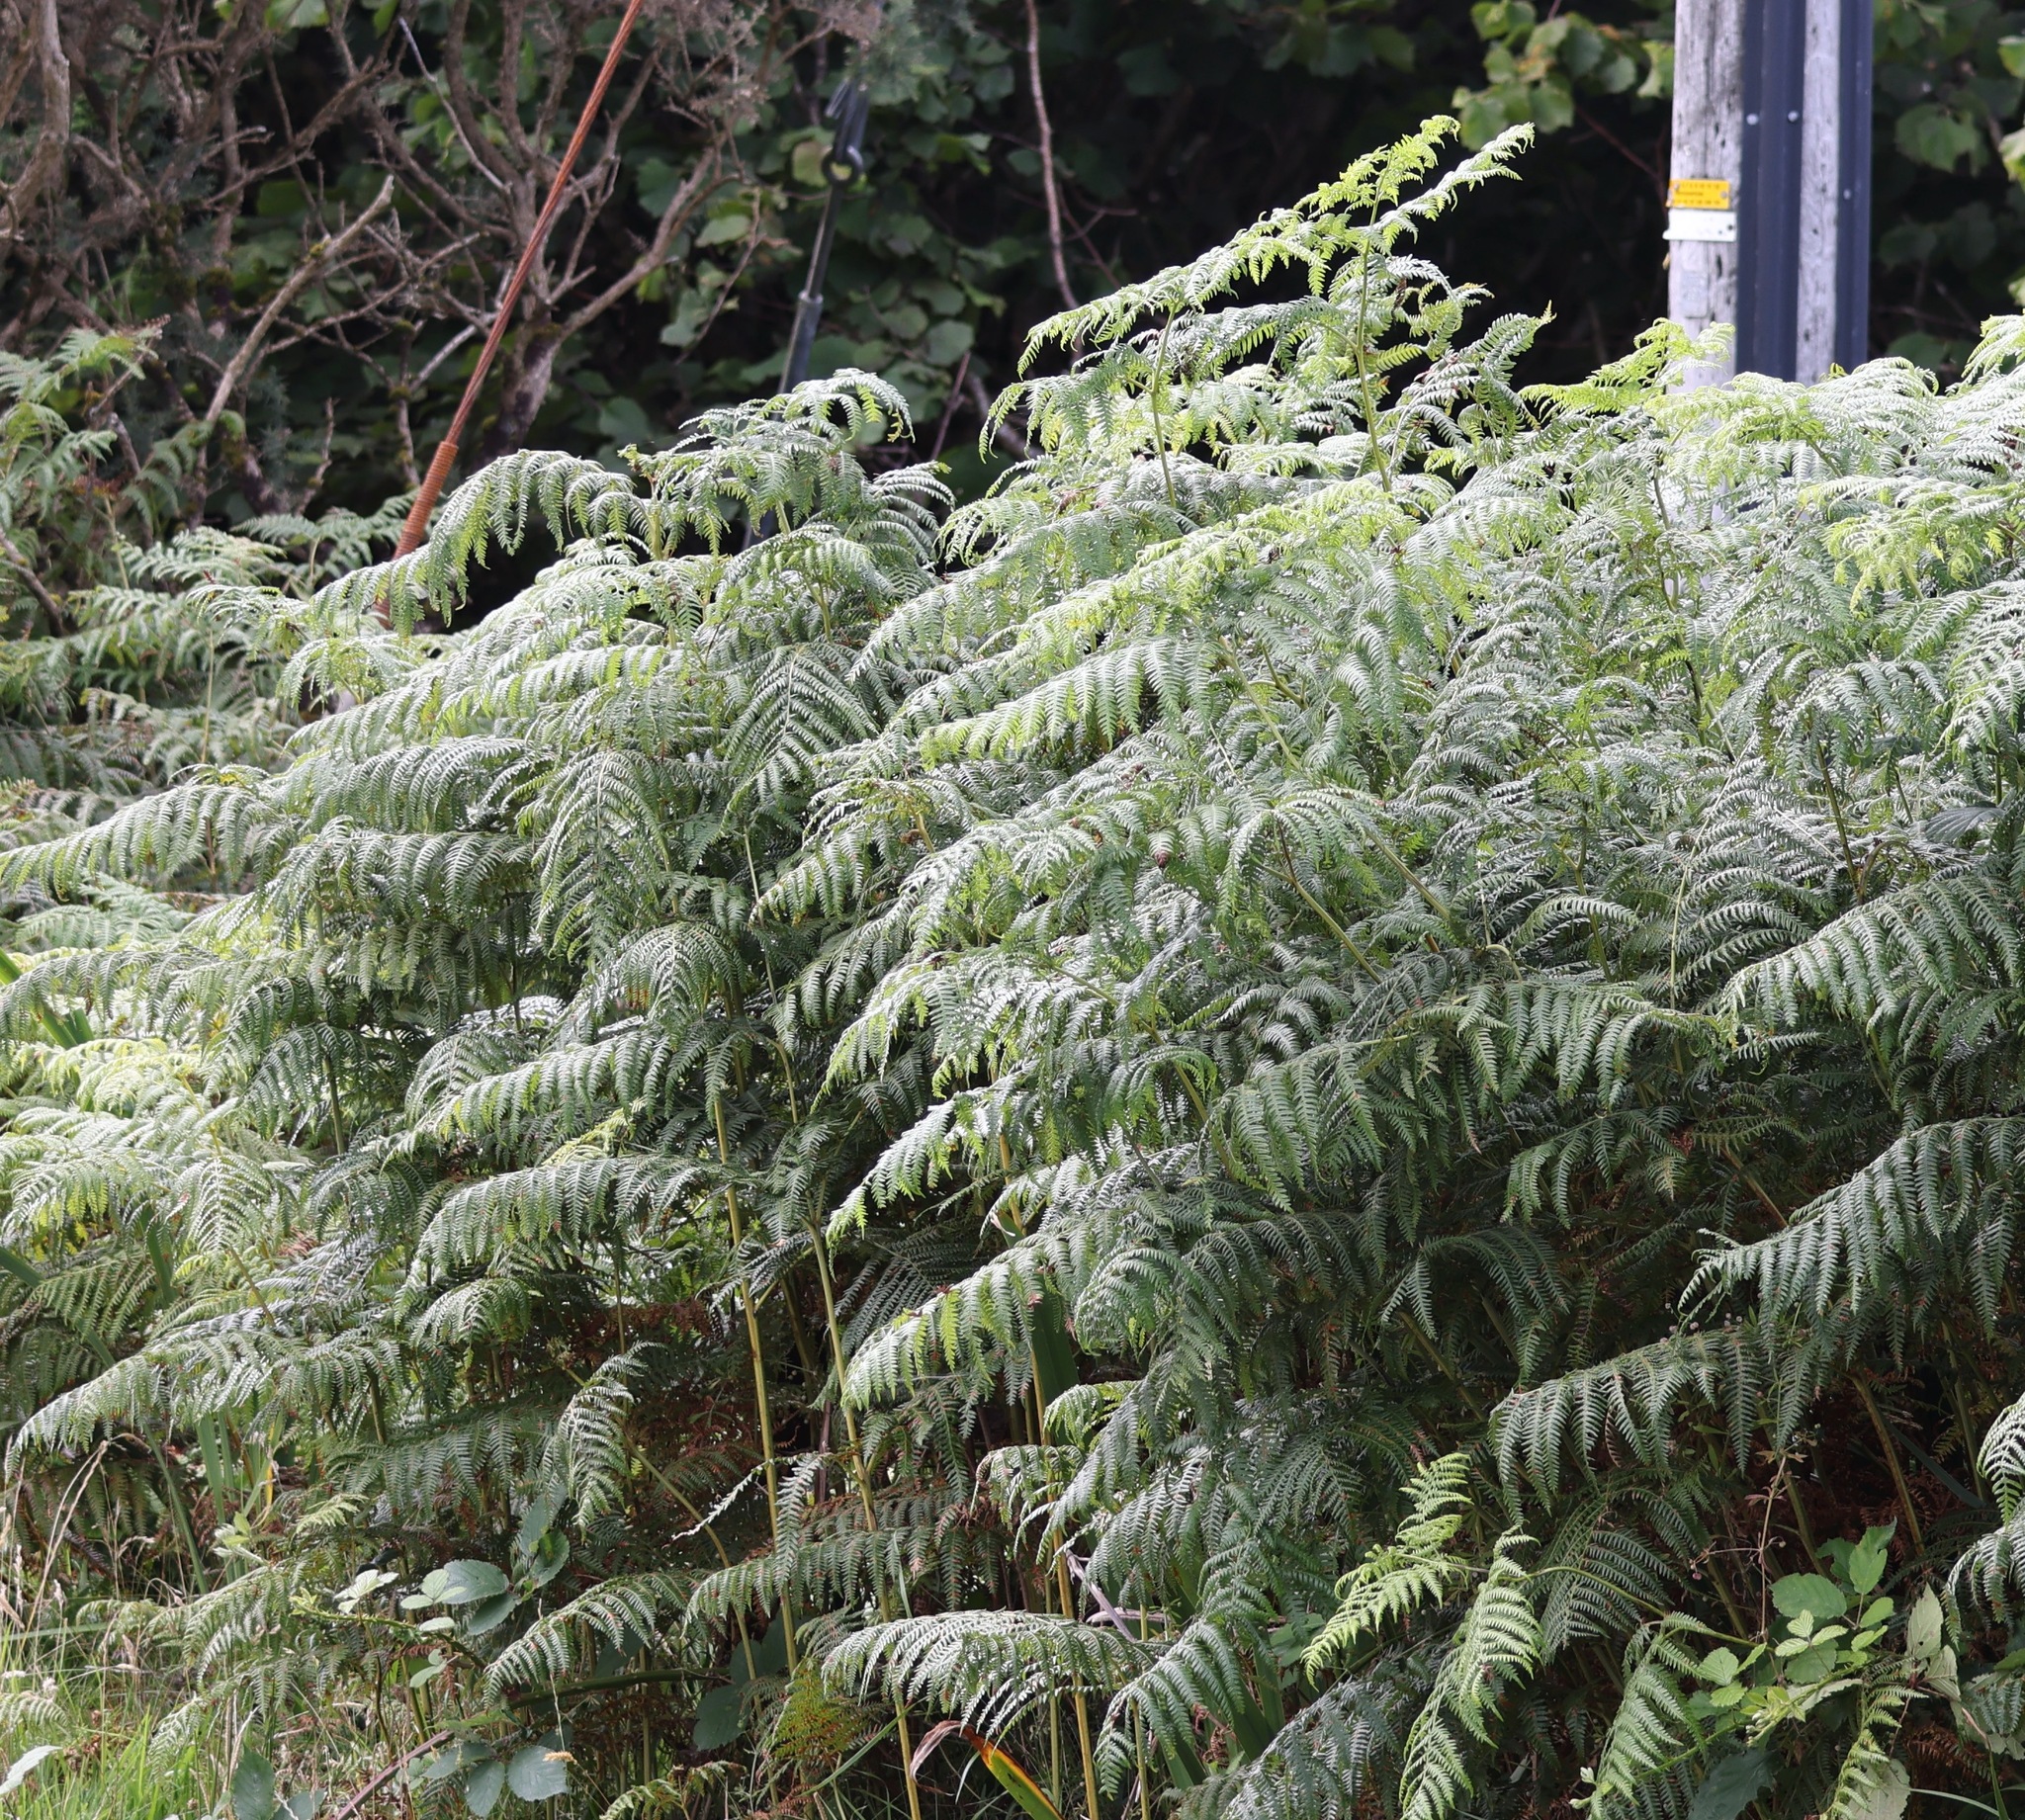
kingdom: Plantae
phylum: Tracheophyta
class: Polypodiopsida
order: Polypodiales
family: Dennstaedtiaceae
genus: Pteridium
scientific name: Pteridium aquilinum
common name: Bracken
